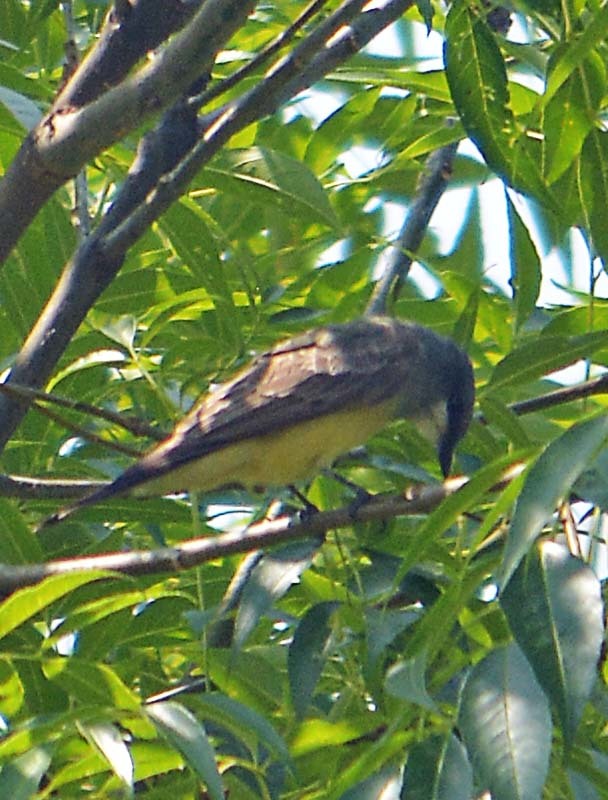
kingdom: Animalia
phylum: Chordata
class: Aves
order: Passeriformes
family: Tyrannidae
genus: Tyrannus
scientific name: Tyrannus vociferans
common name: Cassin's kingbird
